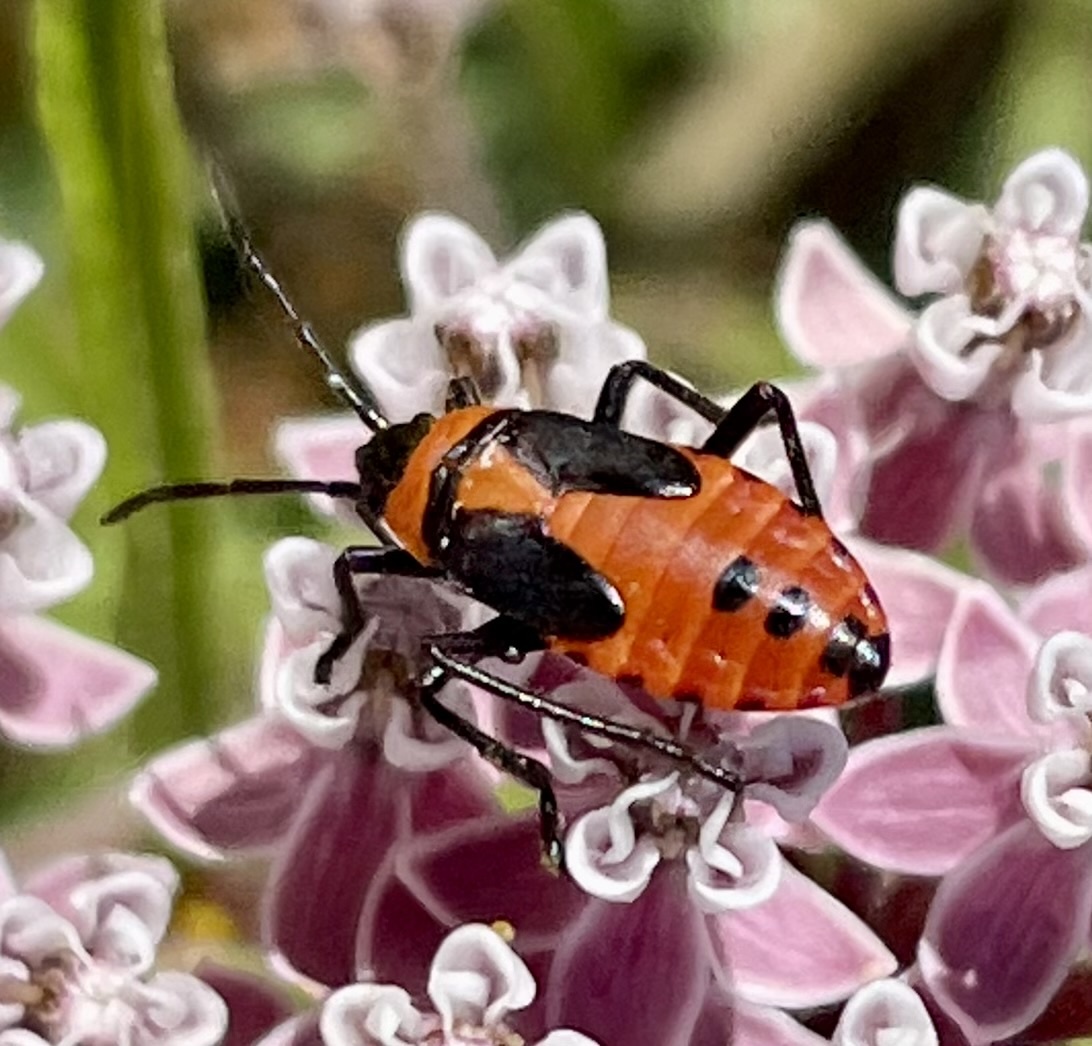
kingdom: Animalia
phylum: Arthropoda
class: Insecta
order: Hemiptera
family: Lygaeidae
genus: Oncopeltus
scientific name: Oncopeltus fasciatus
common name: Large milkweed bug
